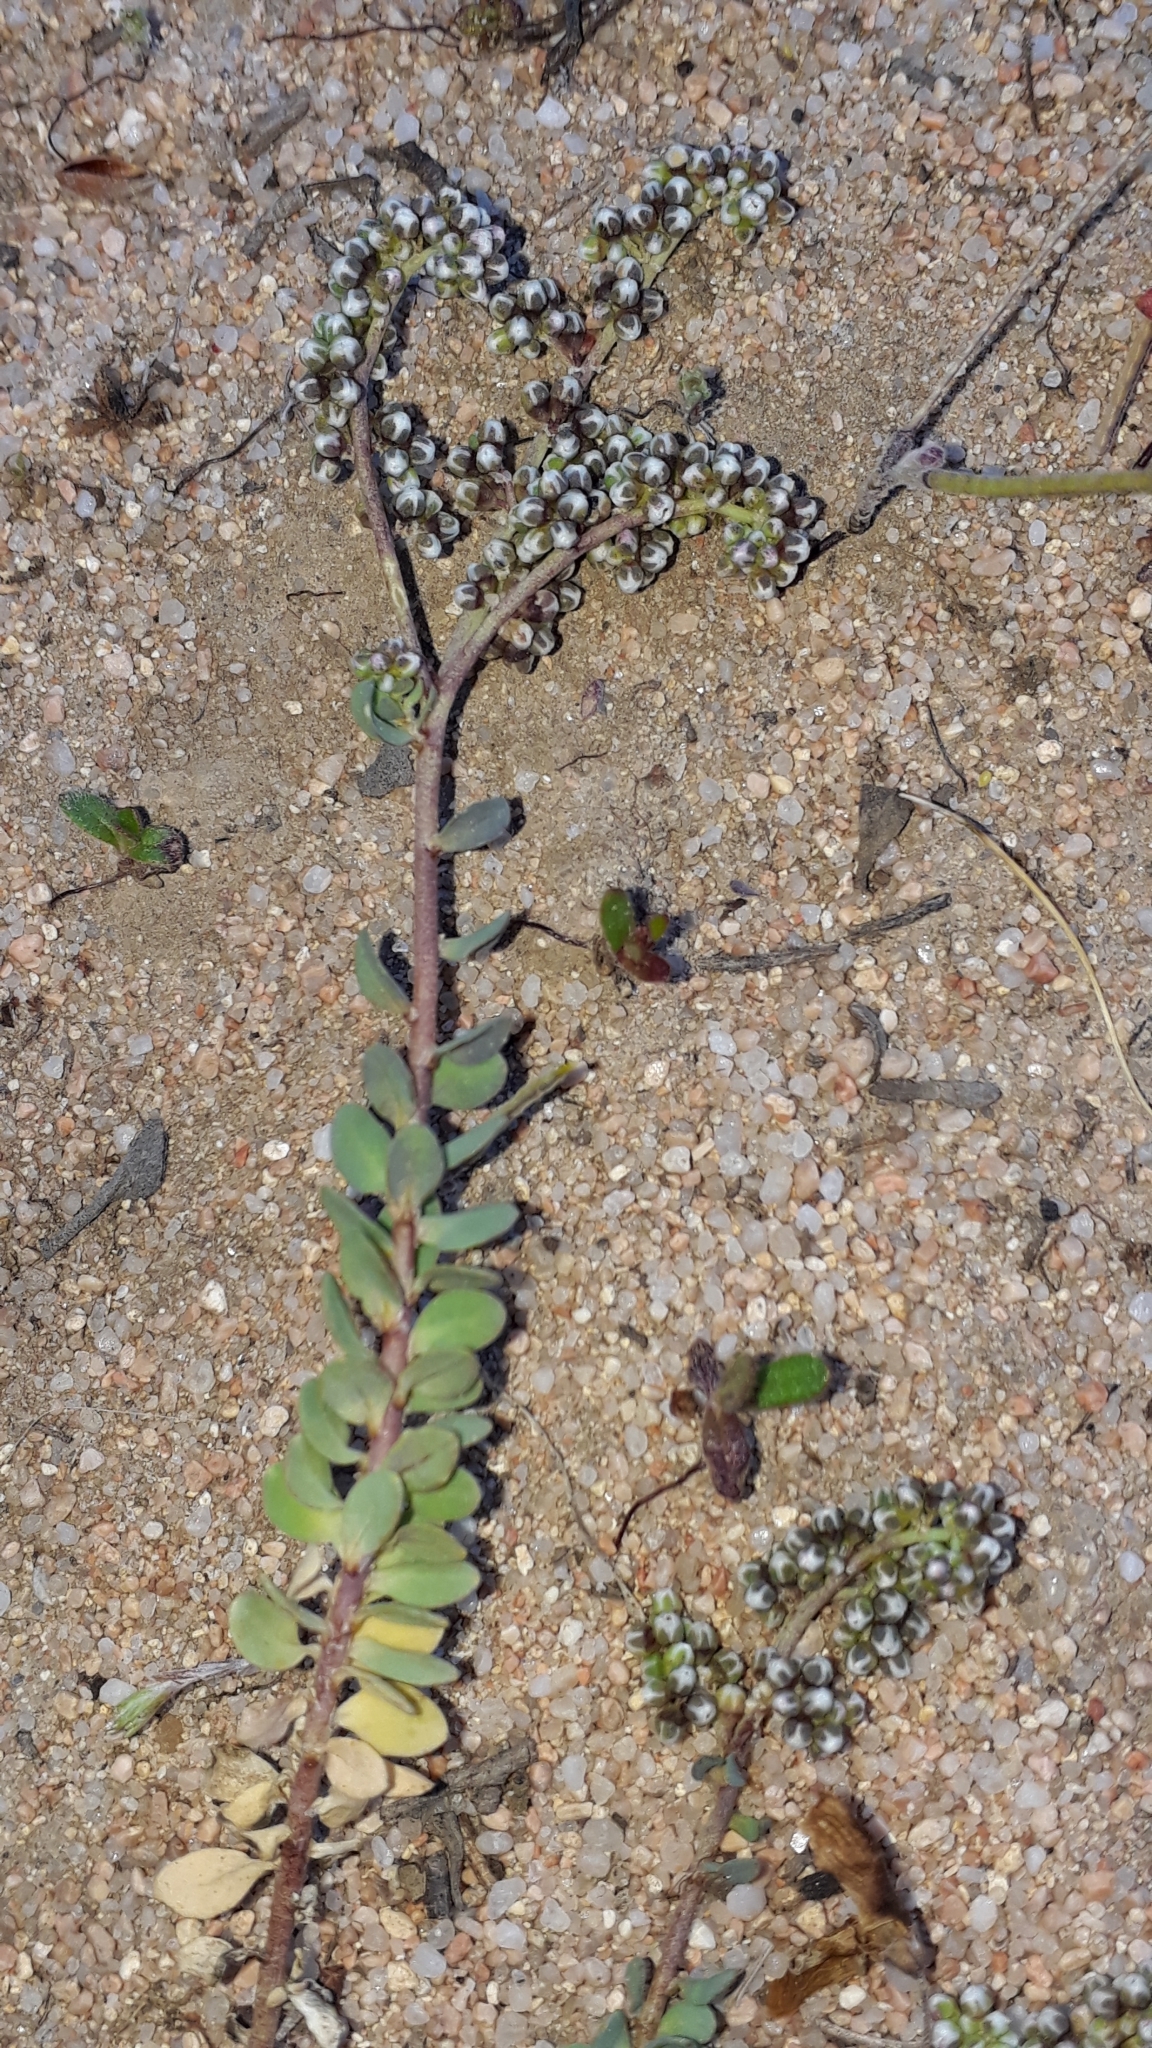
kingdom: Plantae
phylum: Tracheophyta
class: Magnoliopsida
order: Caryophyllales
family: Caryophyllaceae
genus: Corrigiola
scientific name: Corrigiola telephiifolia
